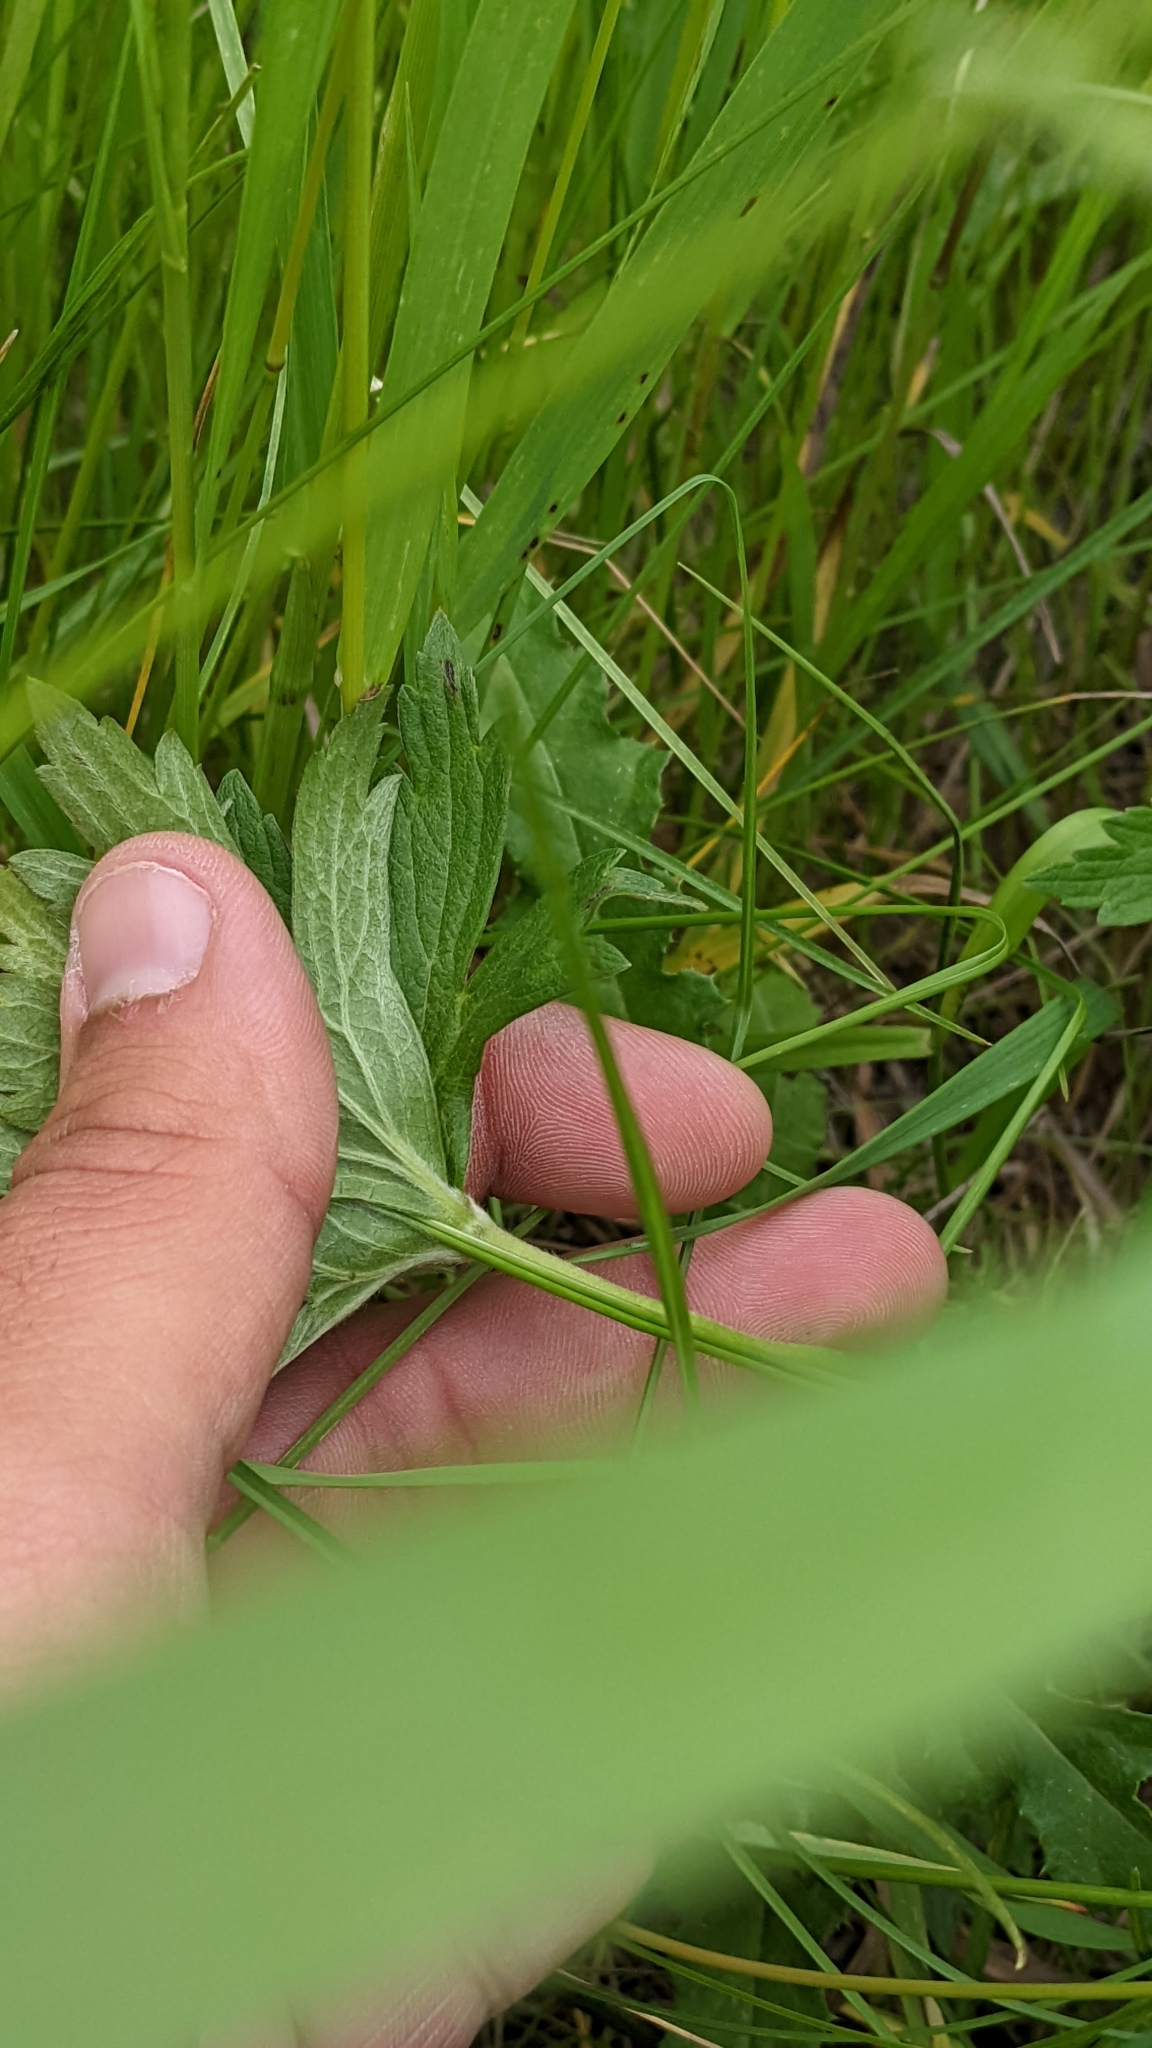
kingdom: Plantae
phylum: Tracheophyta
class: Magnoliopsida
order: Ranunculales
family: Ranunculaceae
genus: Anemonastrum
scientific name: Anemonastrum canadense
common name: Canada anemone
